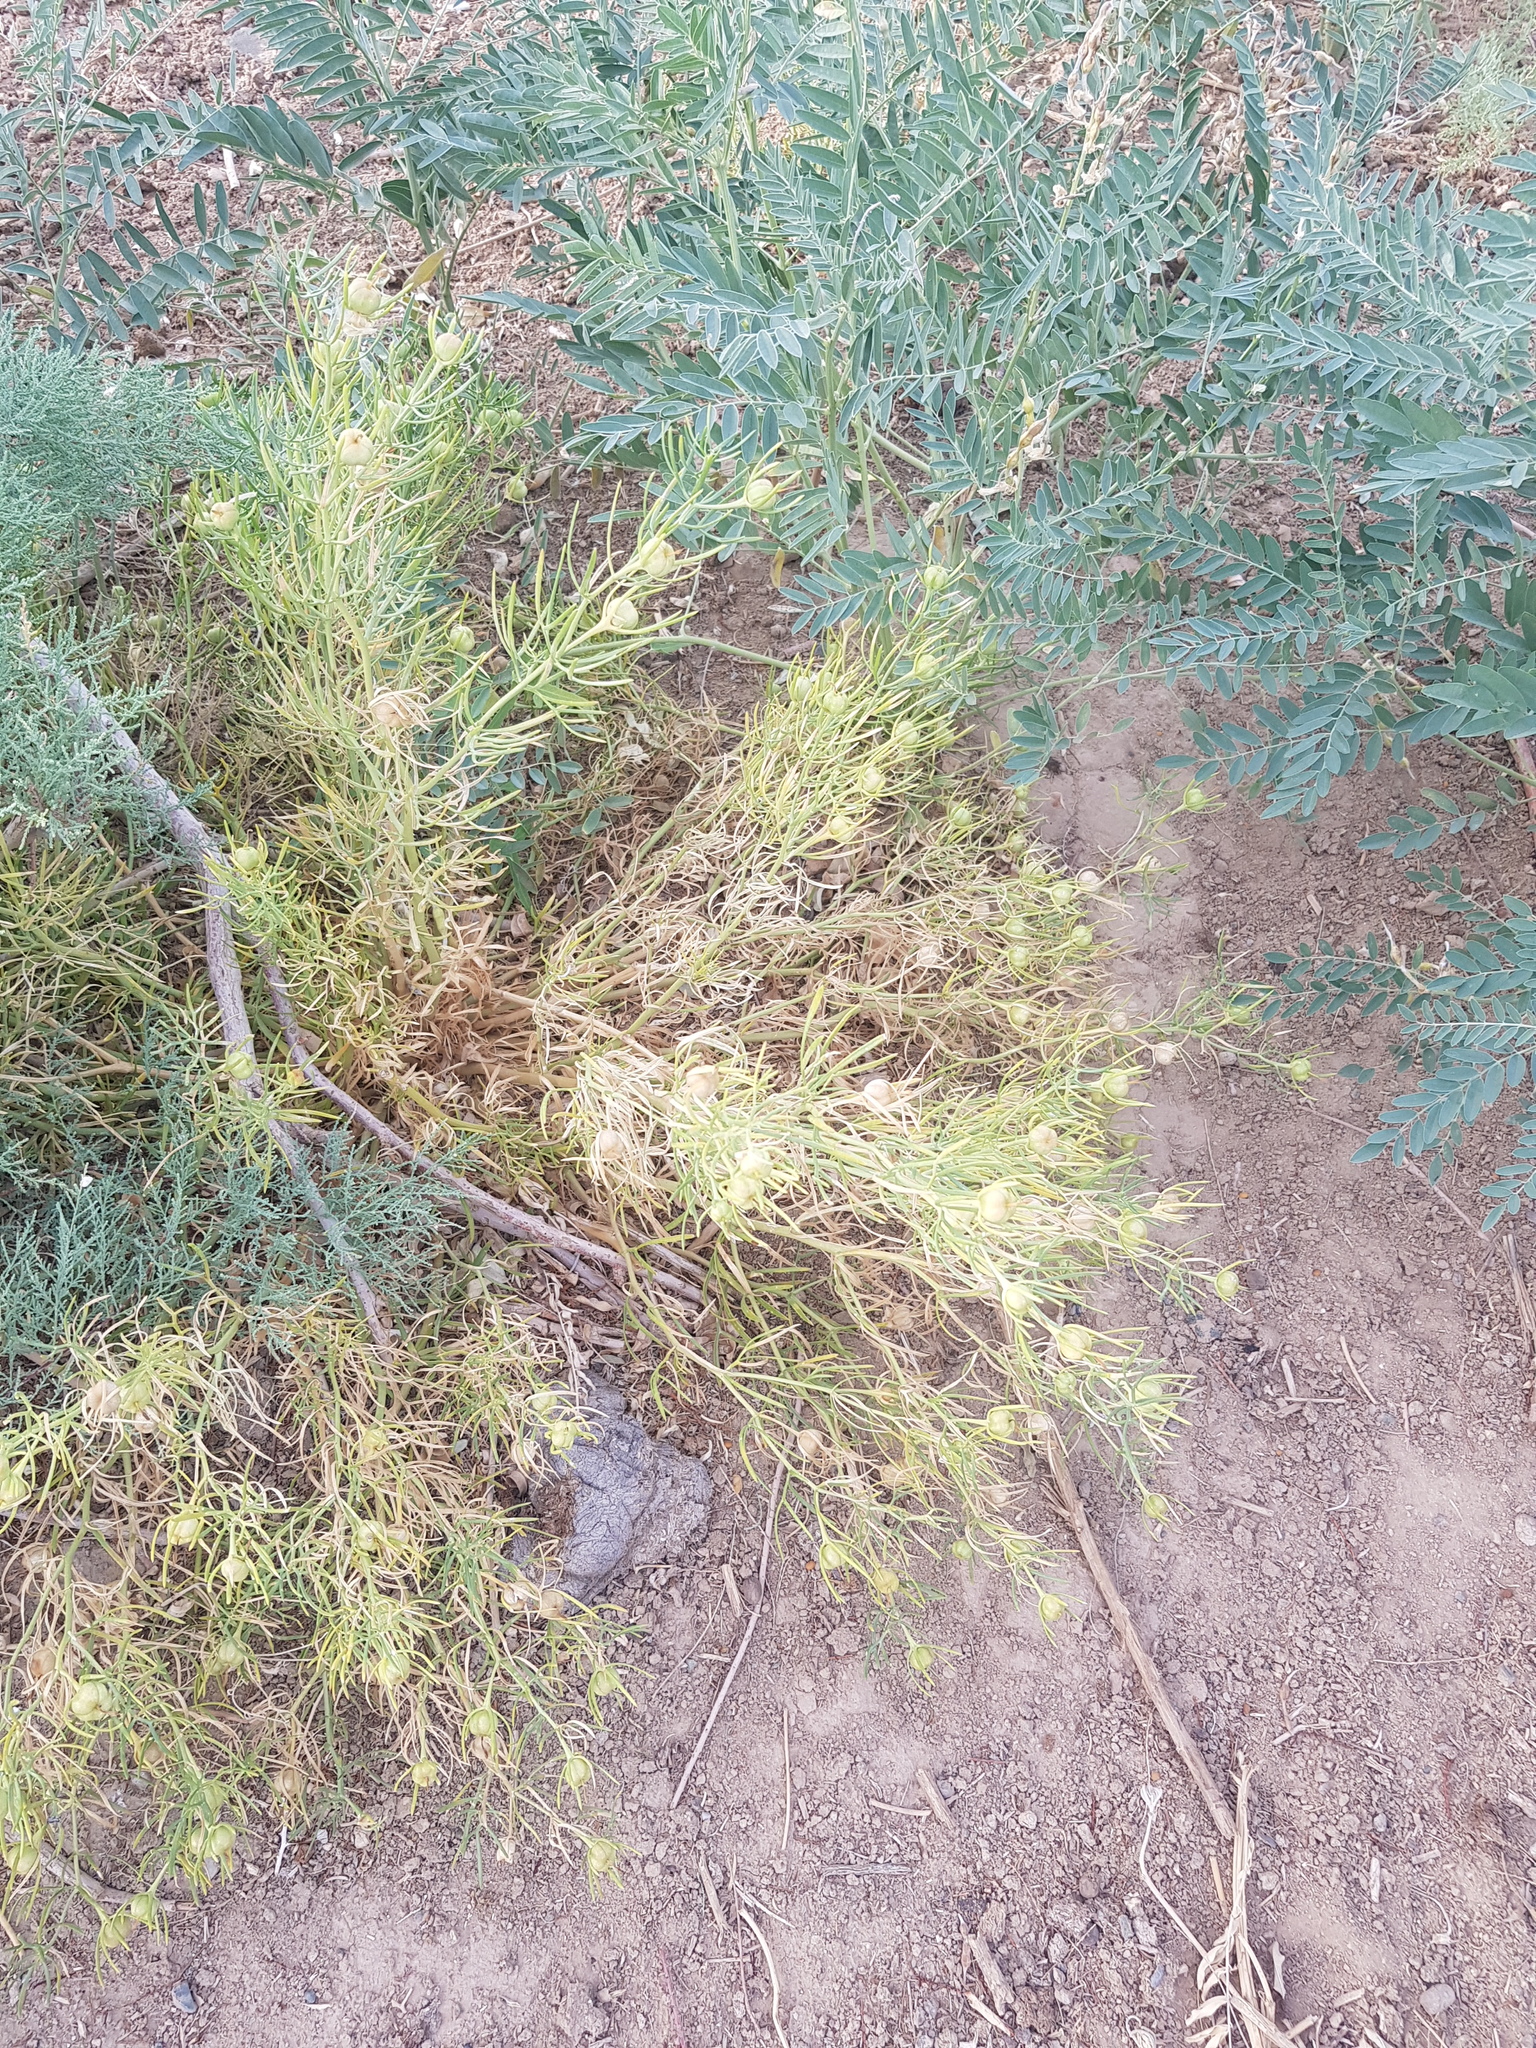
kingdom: Plantae
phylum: Tracheophyta
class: Magnoliopsida
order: Sapindales
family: Tetradiclidaceae
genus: Peganum
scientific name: Peganum harmala
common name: Harmal peganum
